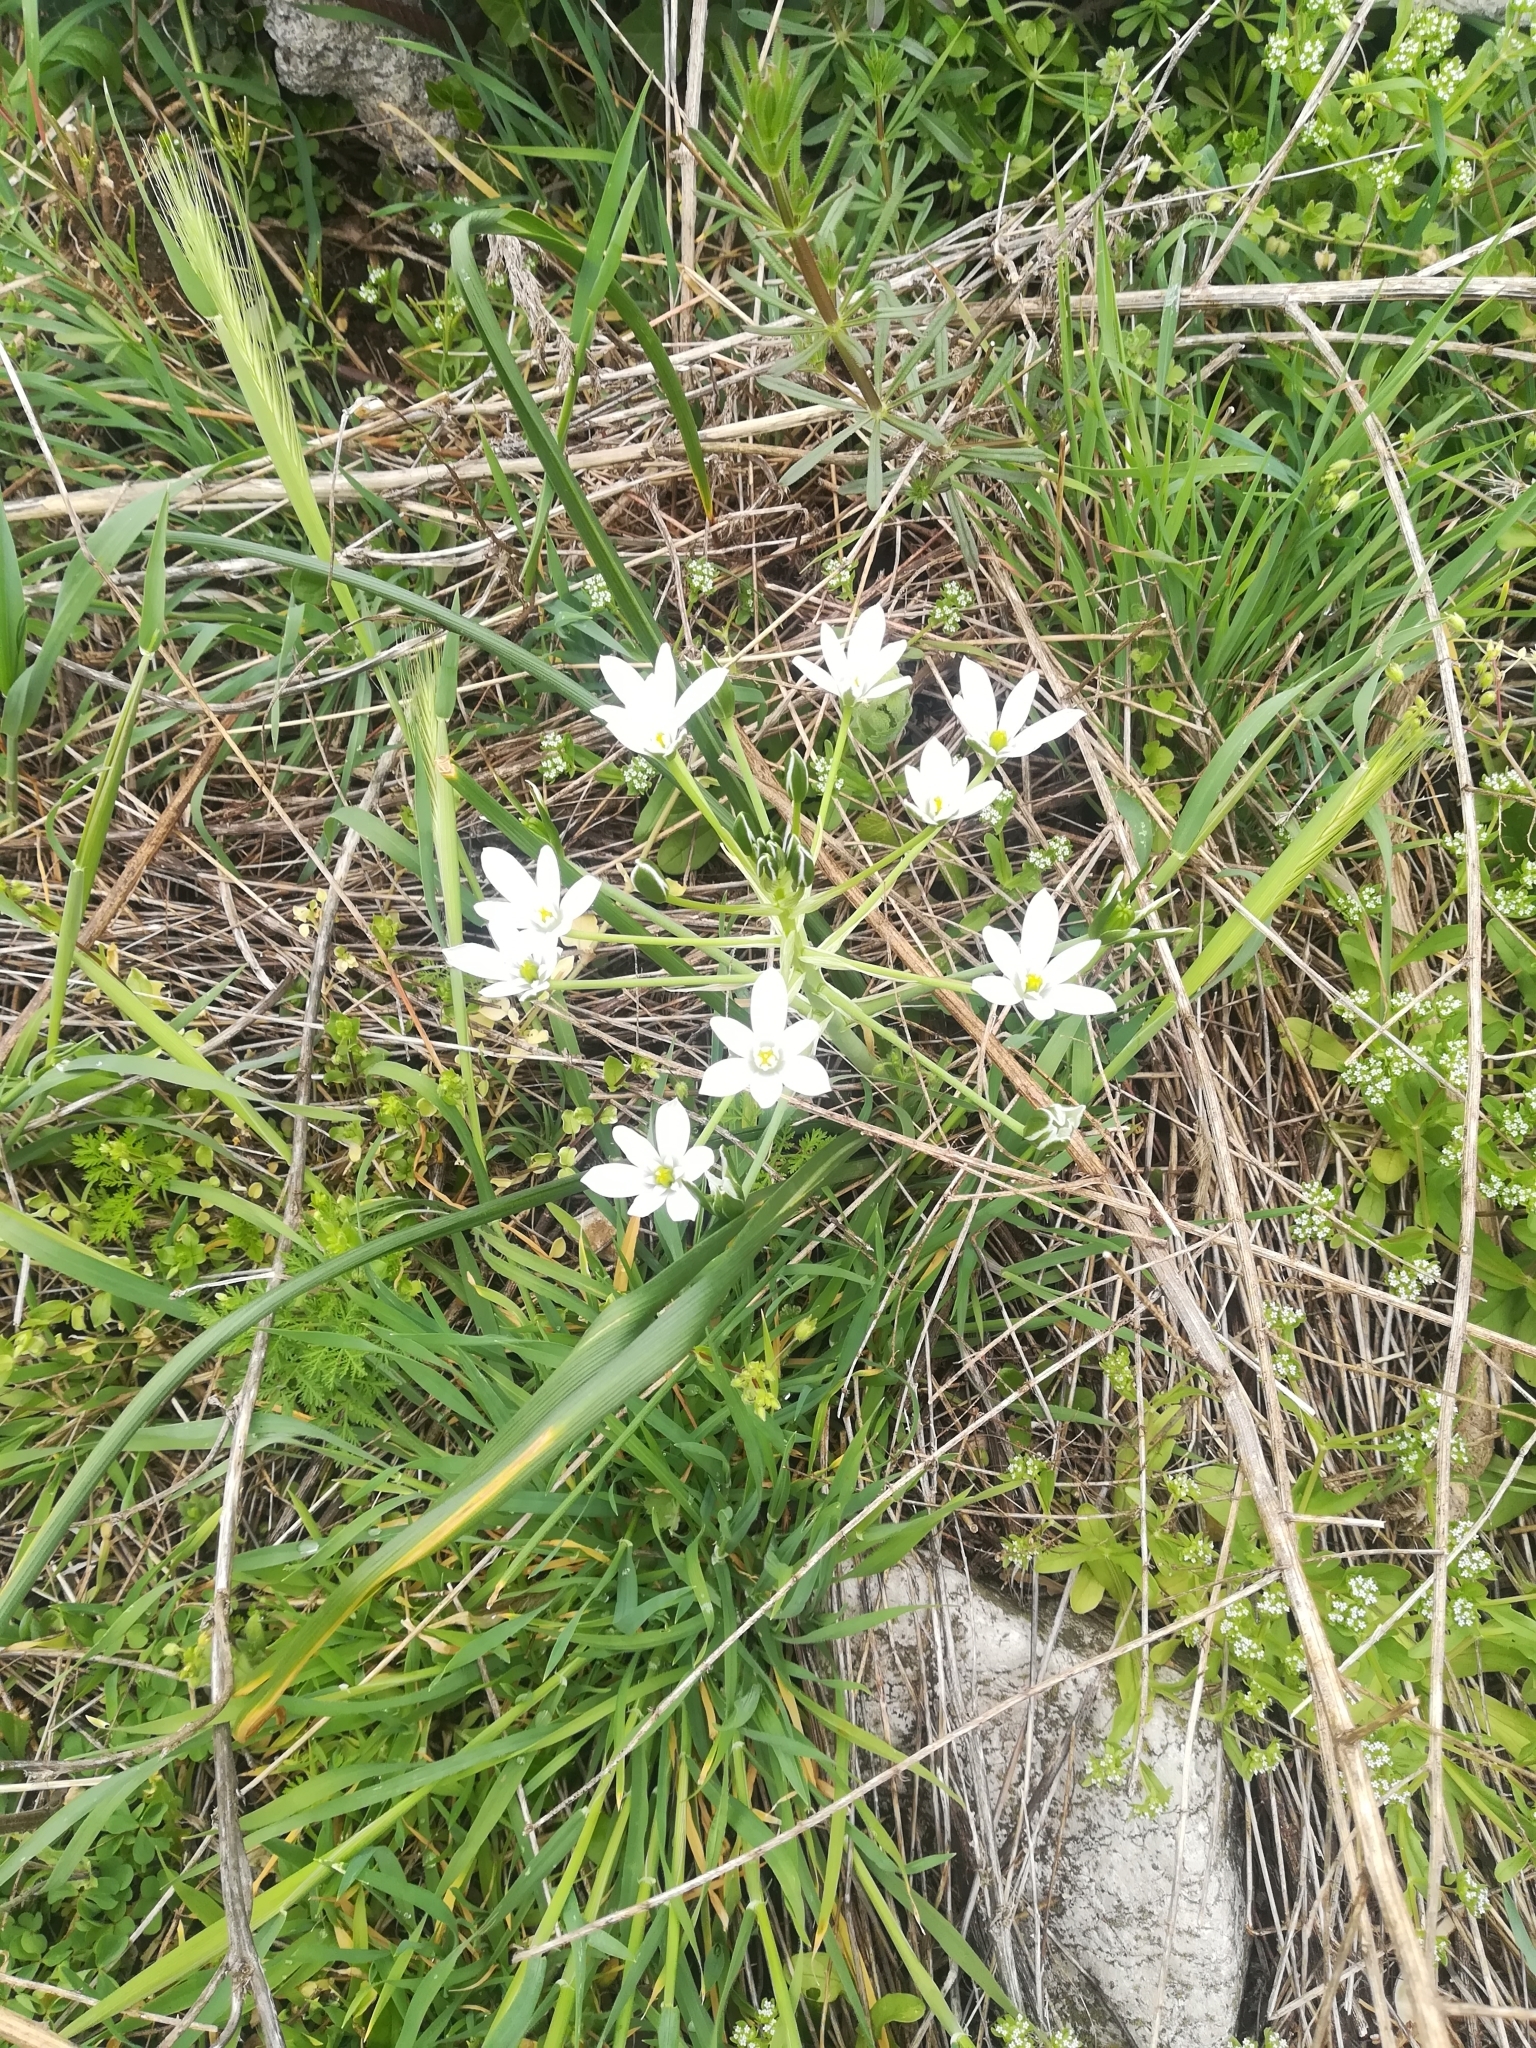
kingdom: Plantae
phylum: Tracheophyta
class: Liliopsida
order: Asparagales
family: Asparagaceae
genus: Ornithogalum
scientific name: Ornithogalum divergens
